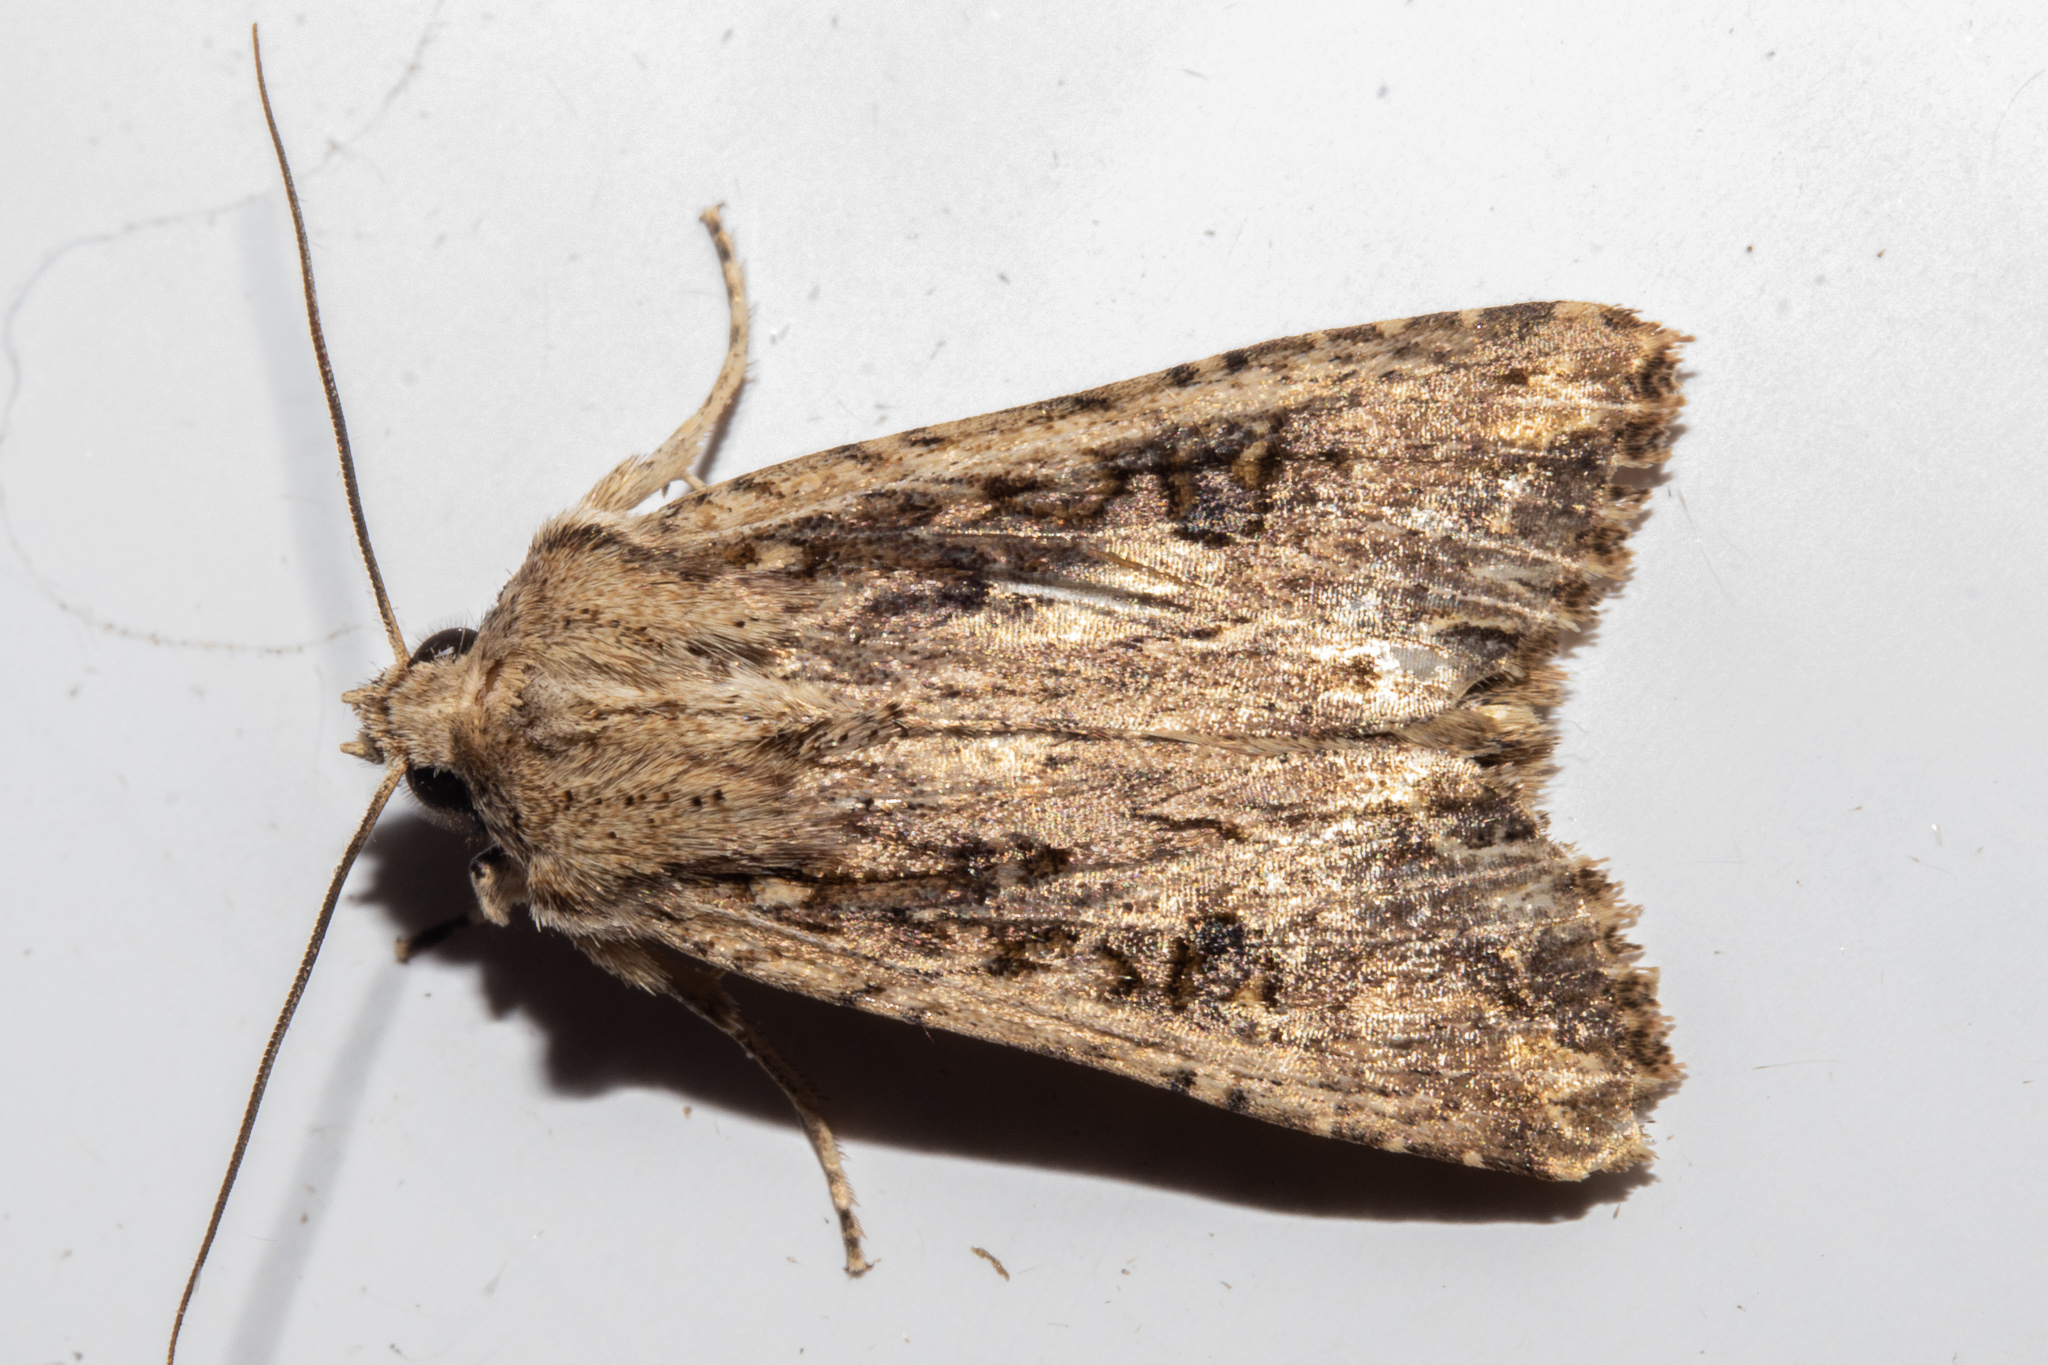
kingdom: Animalia
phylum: Arthropoda
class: Insecta
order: Lepidoptera
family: Noctuidae
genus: Ichneutica
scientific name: Ichneutica lignana
